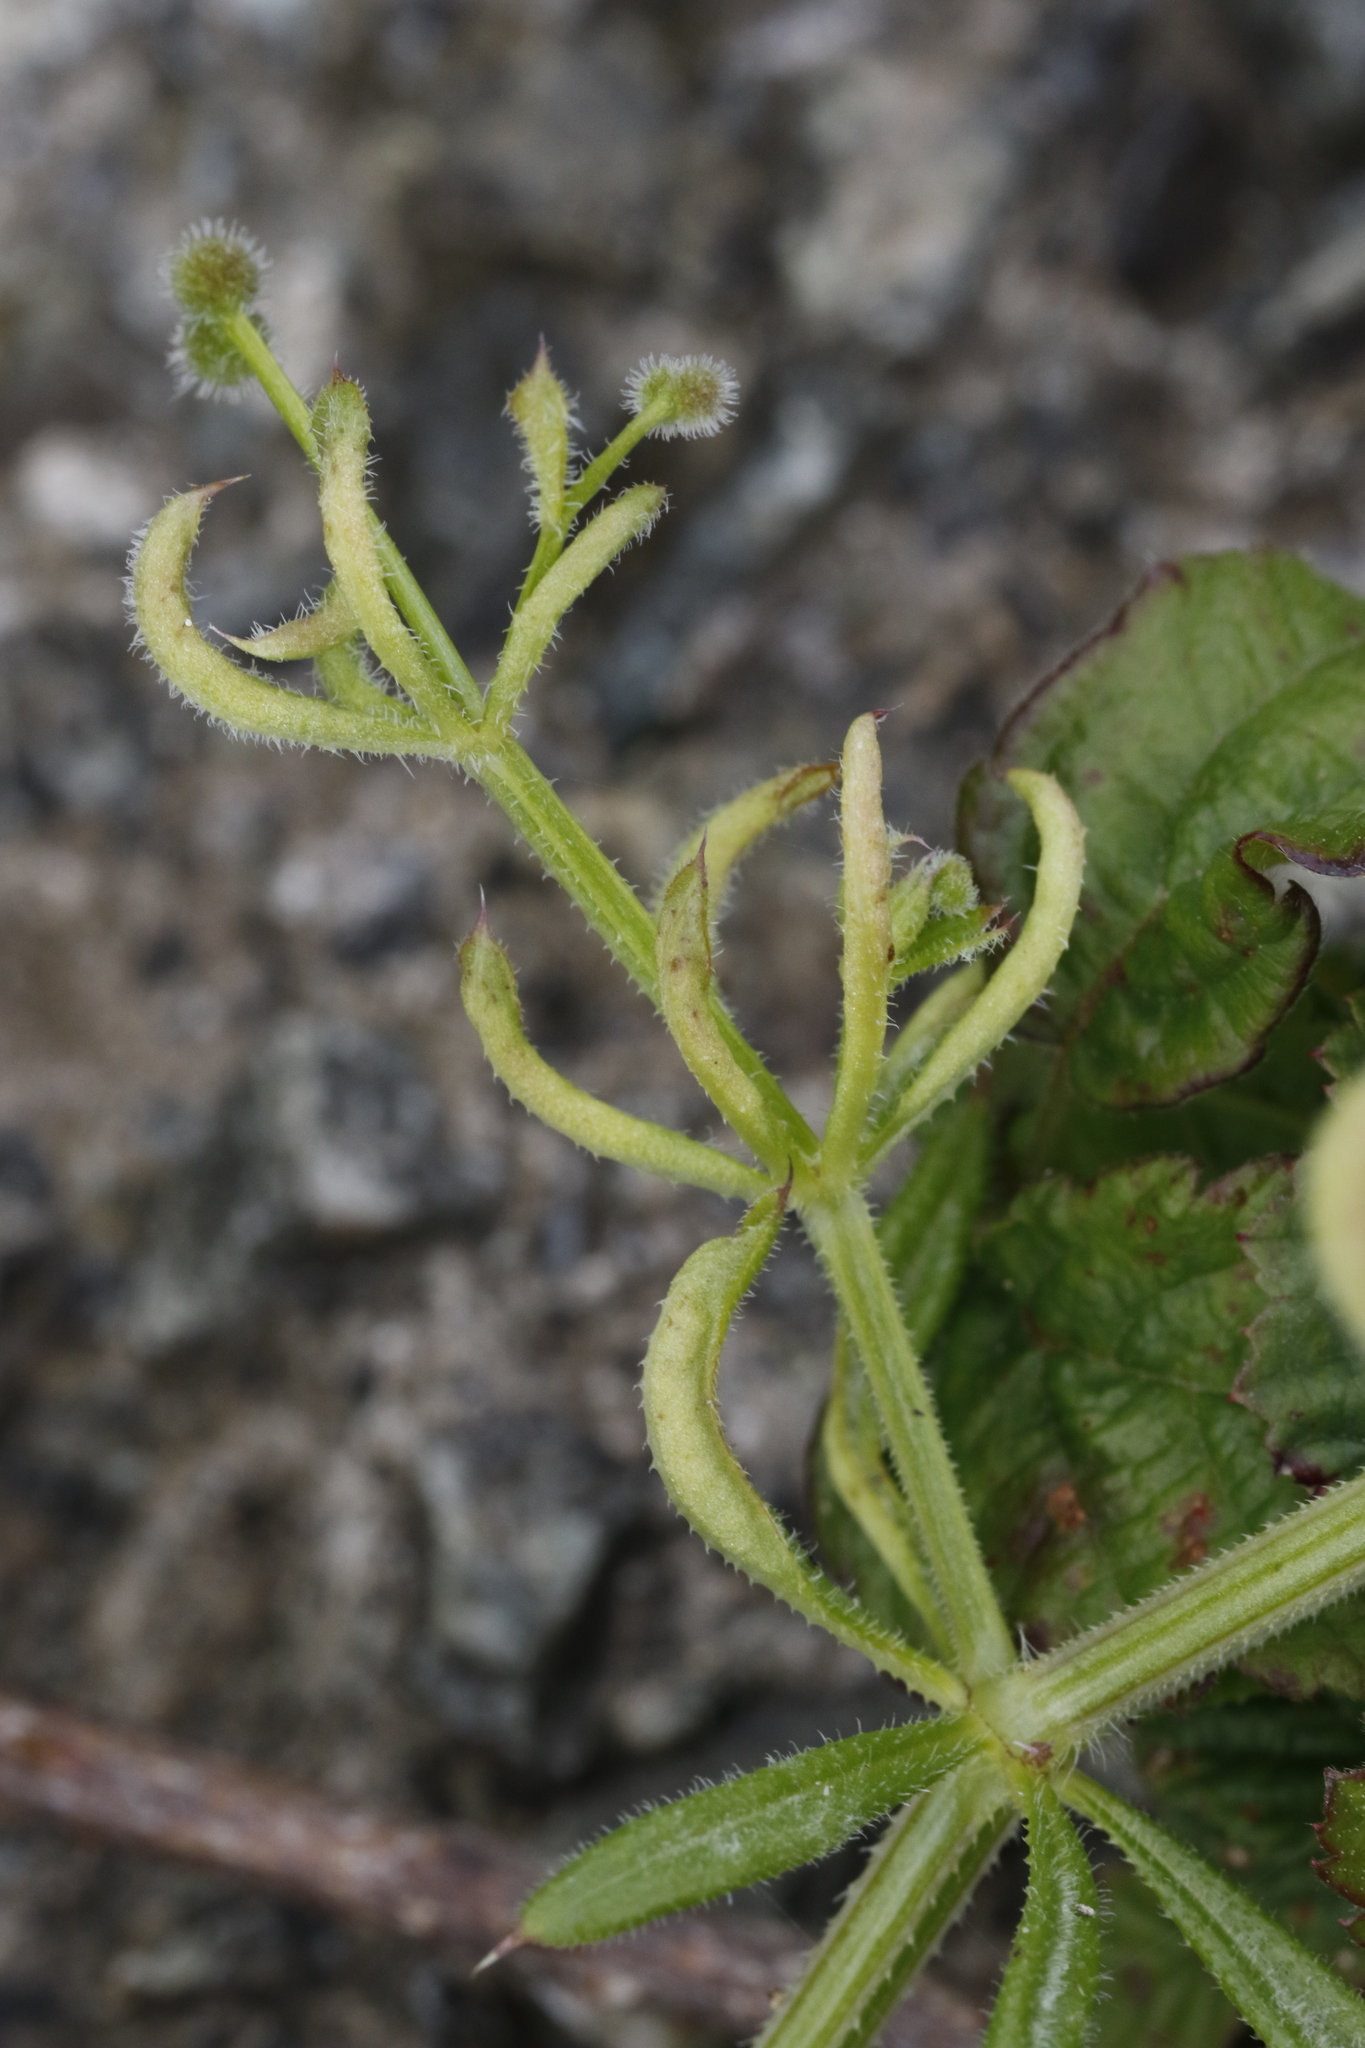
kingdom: Plantae
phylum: Tracheophyta
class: Magnoliopsida
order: Gentianales
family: Rubiaceae
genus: Galium
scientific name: Galium aparine
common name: Cleavers
